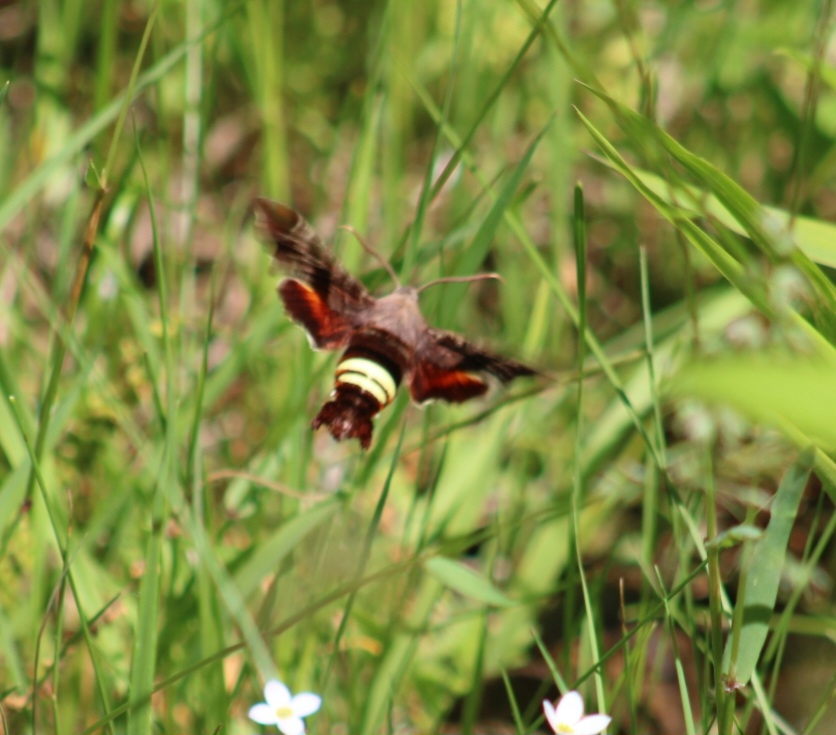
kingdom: Animalia
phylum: Arthropoda
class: Insecta
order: Lepidoptera
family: Sphingidae
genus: Amphion
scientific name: Amphion floridensis
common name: Nessus sphinx
